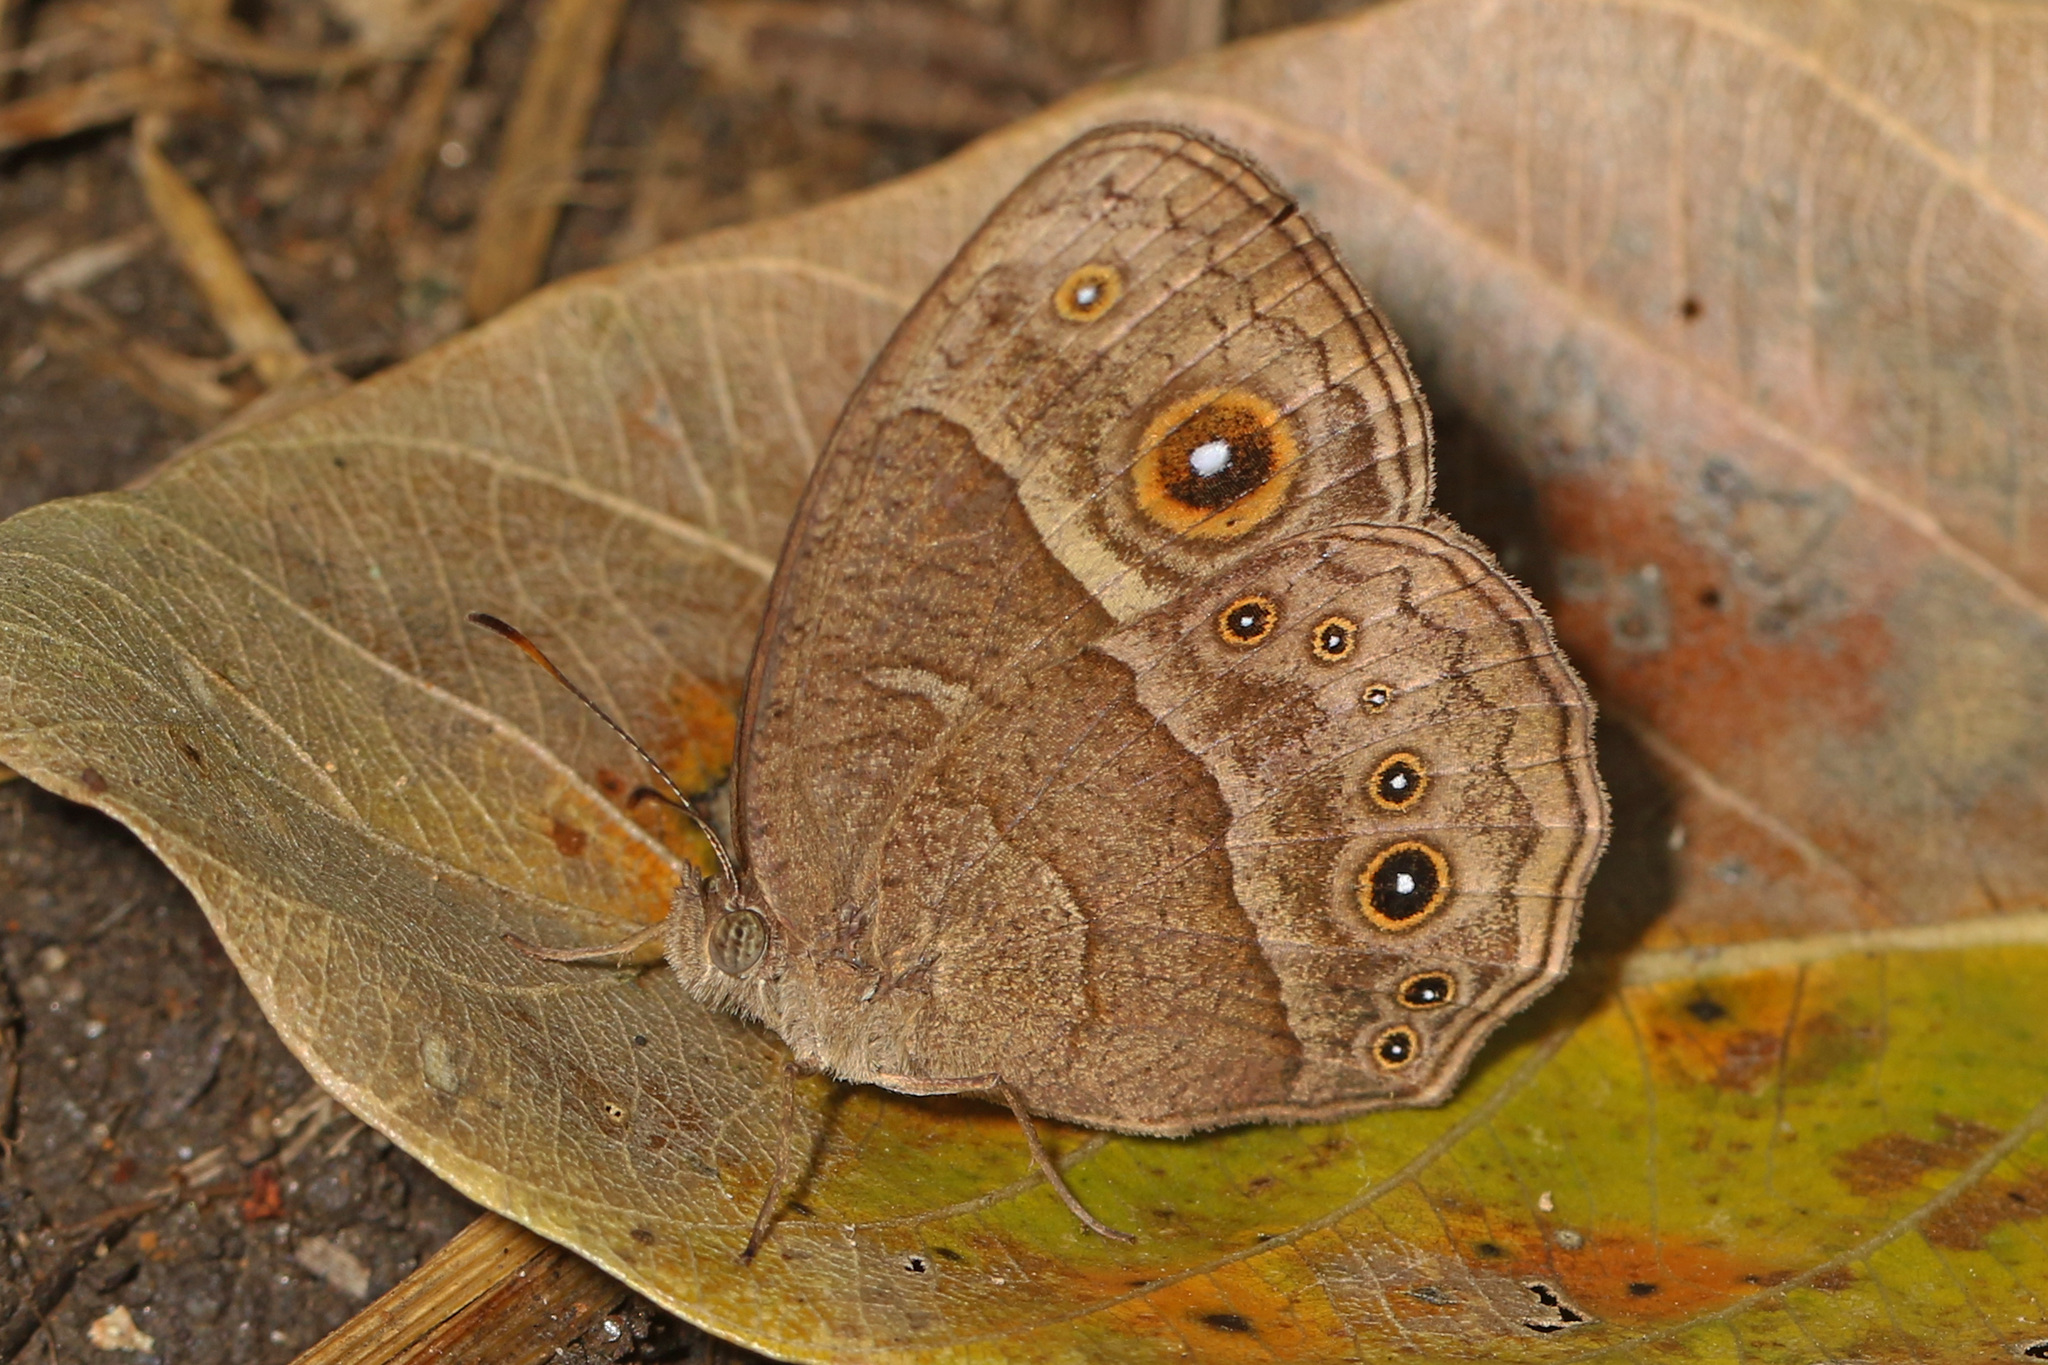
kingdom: Animalia
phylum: Arthropoda
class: Insecta
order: Lepidoptera
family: Nymphalidae
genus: Mycalesis
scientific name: Mycalesis anynana
